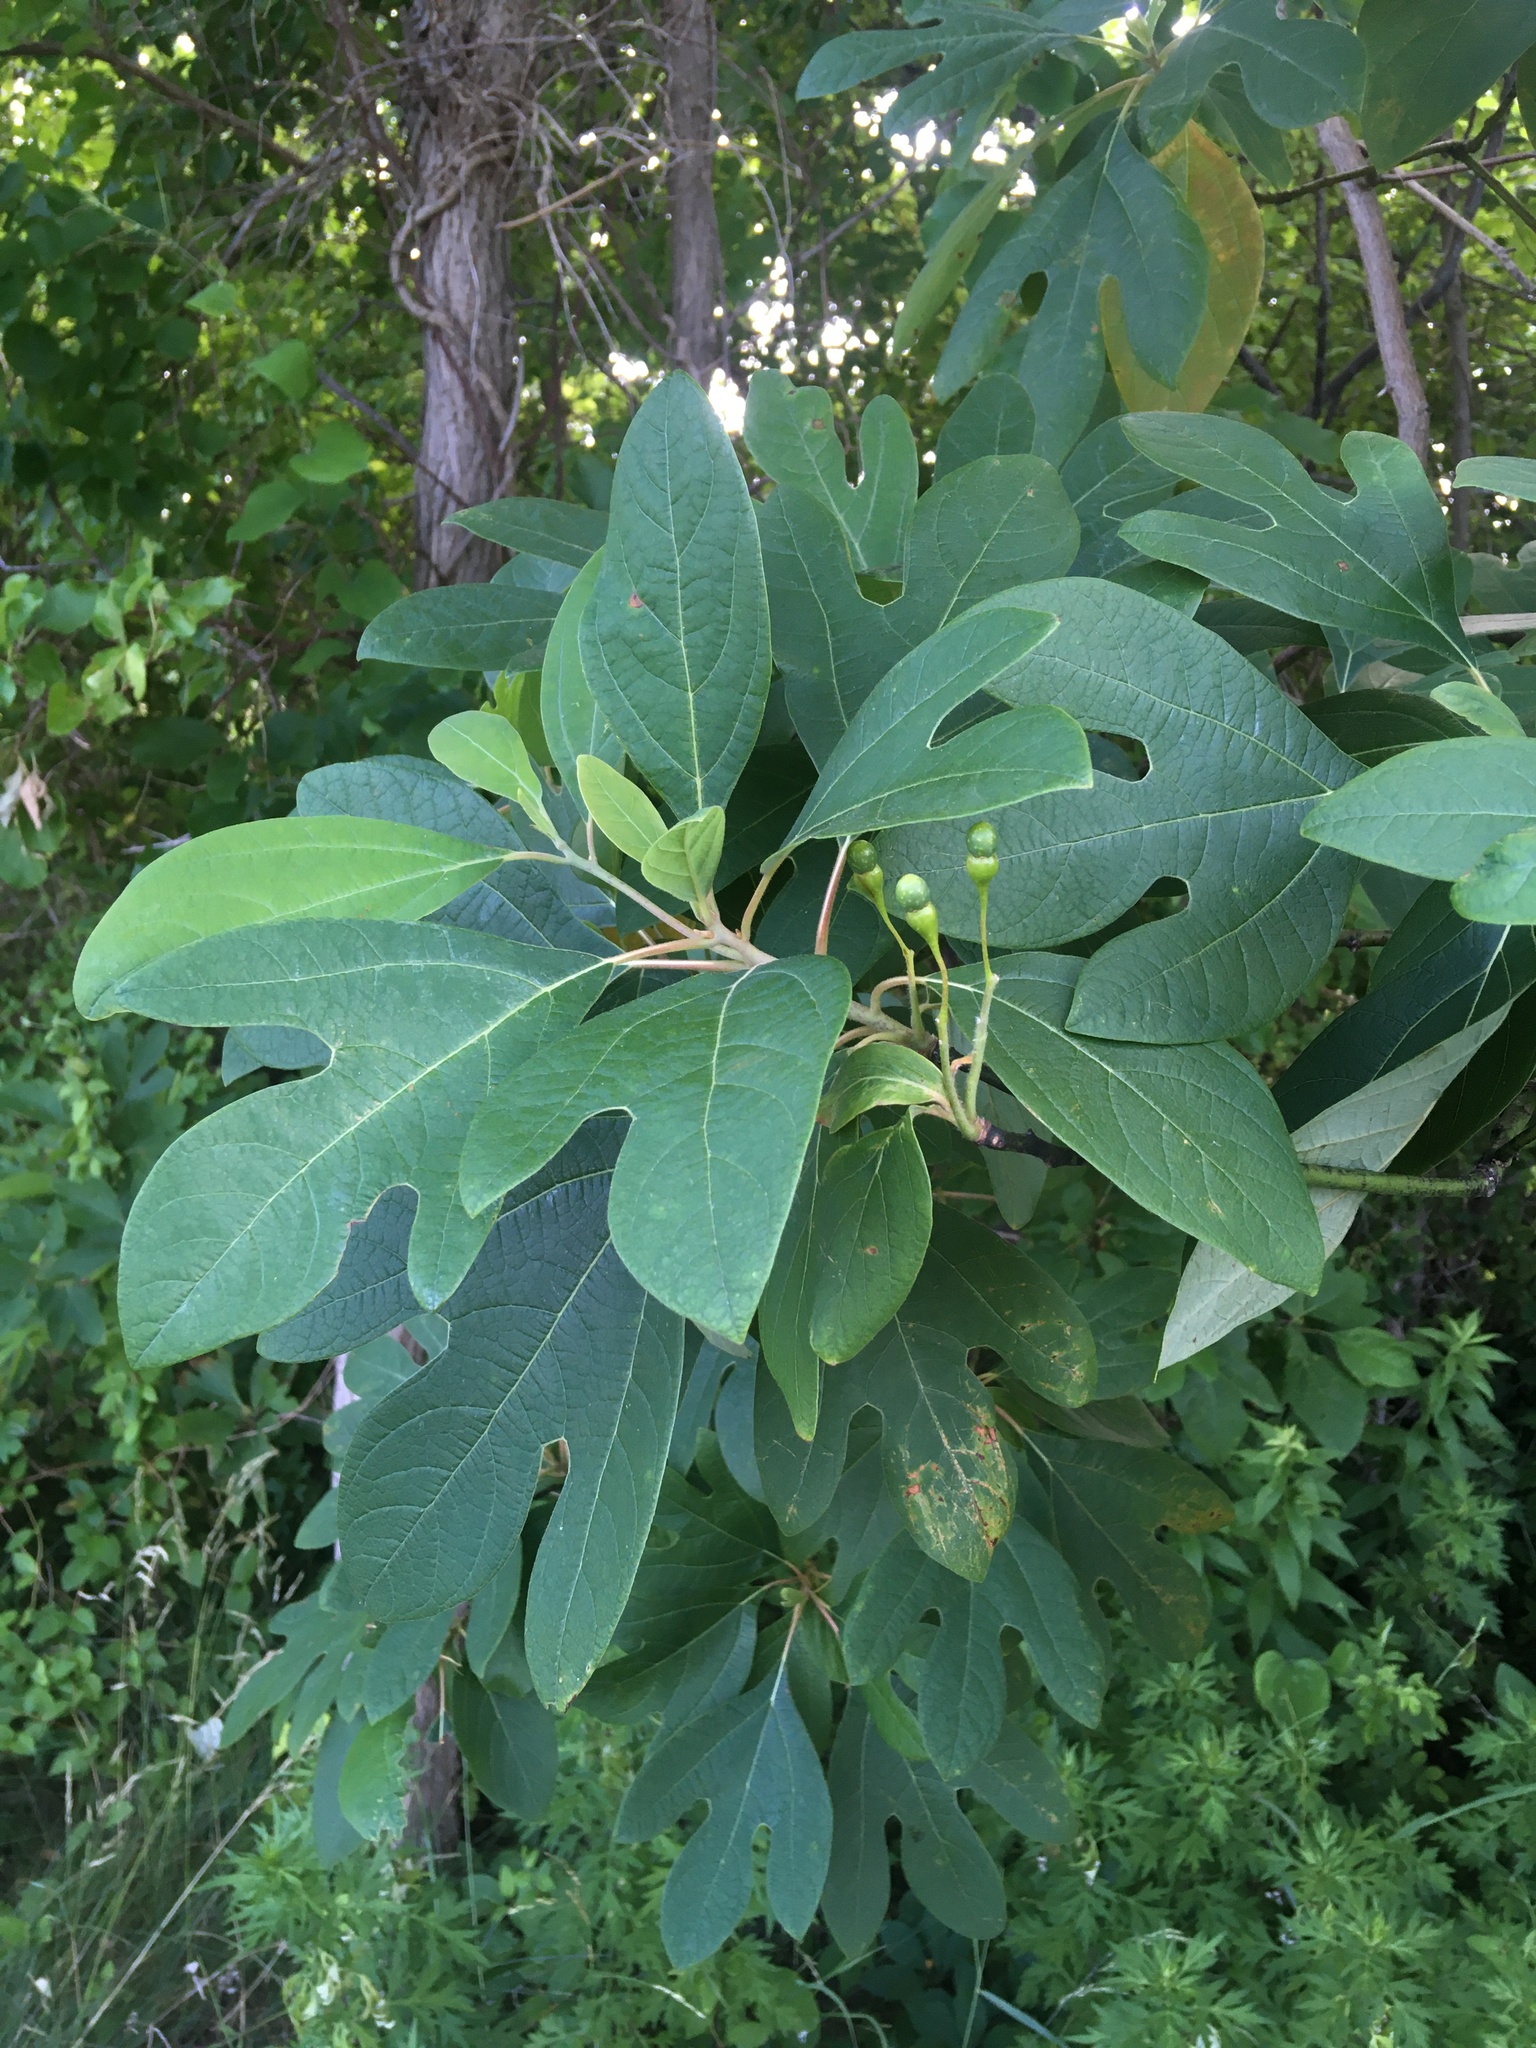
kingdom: Plantae
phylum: Tracheophyta
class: Magnoliopsida
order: Laurales
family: Lauraceae
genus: Sassafras
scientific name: Sassafras albidum
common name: Sassafras
